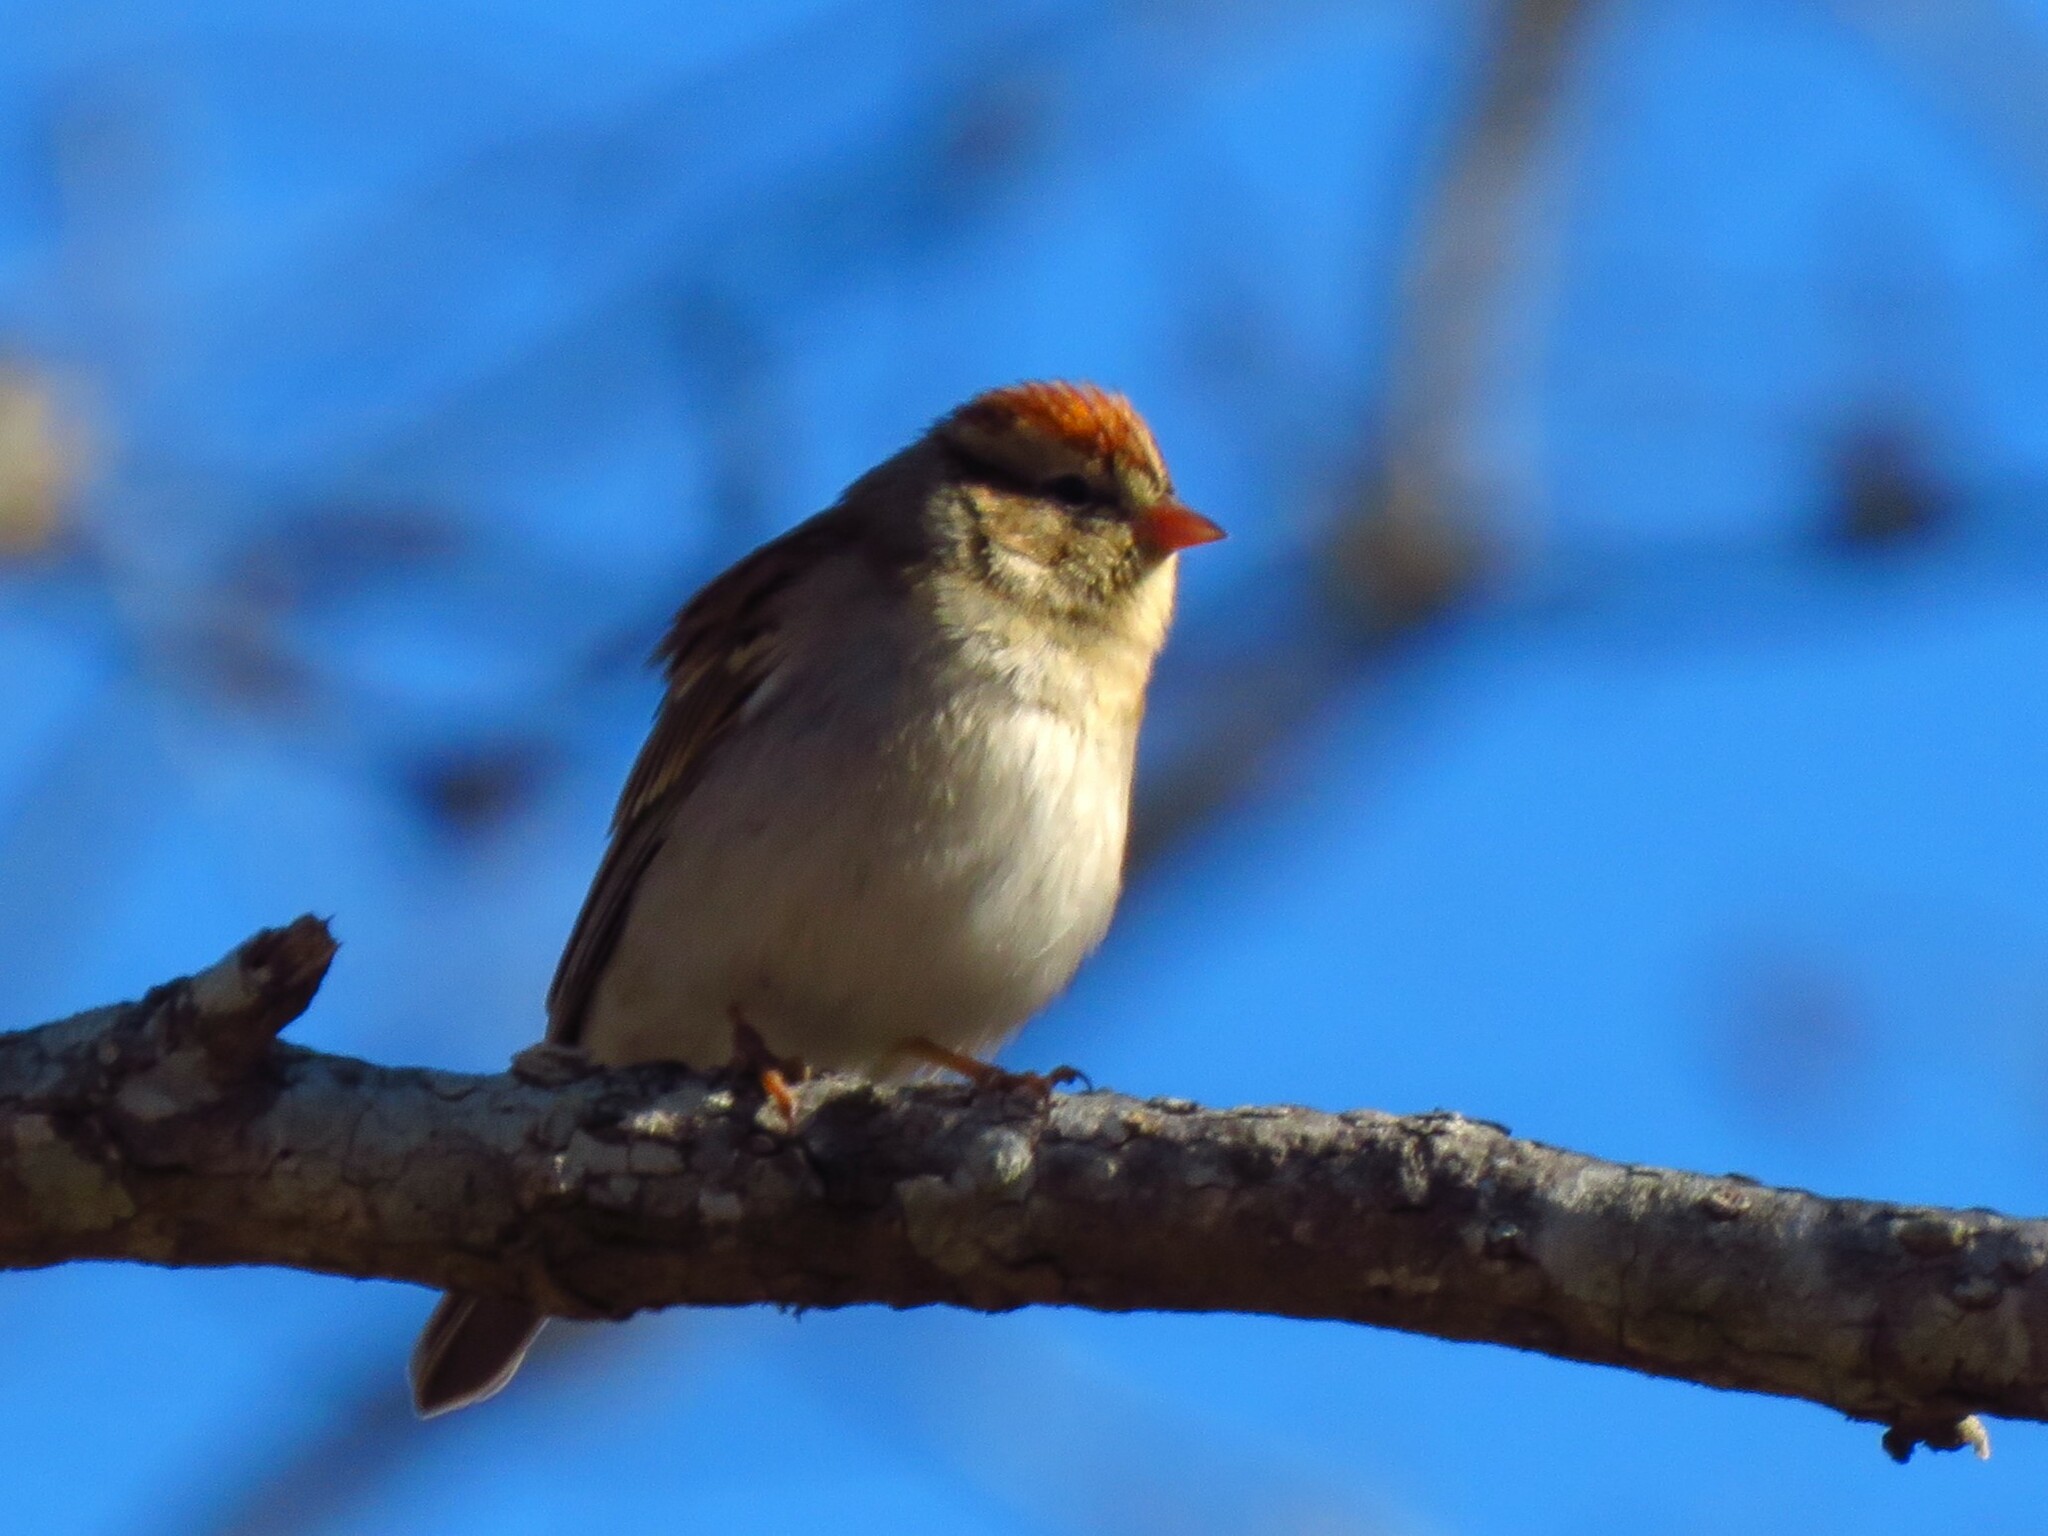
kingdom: Animalia
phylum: Chordata
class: Aves
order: Passeriformes
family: Passerellidae
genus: Spizella
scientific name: Spizella passerina
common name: Chipping sparrow
